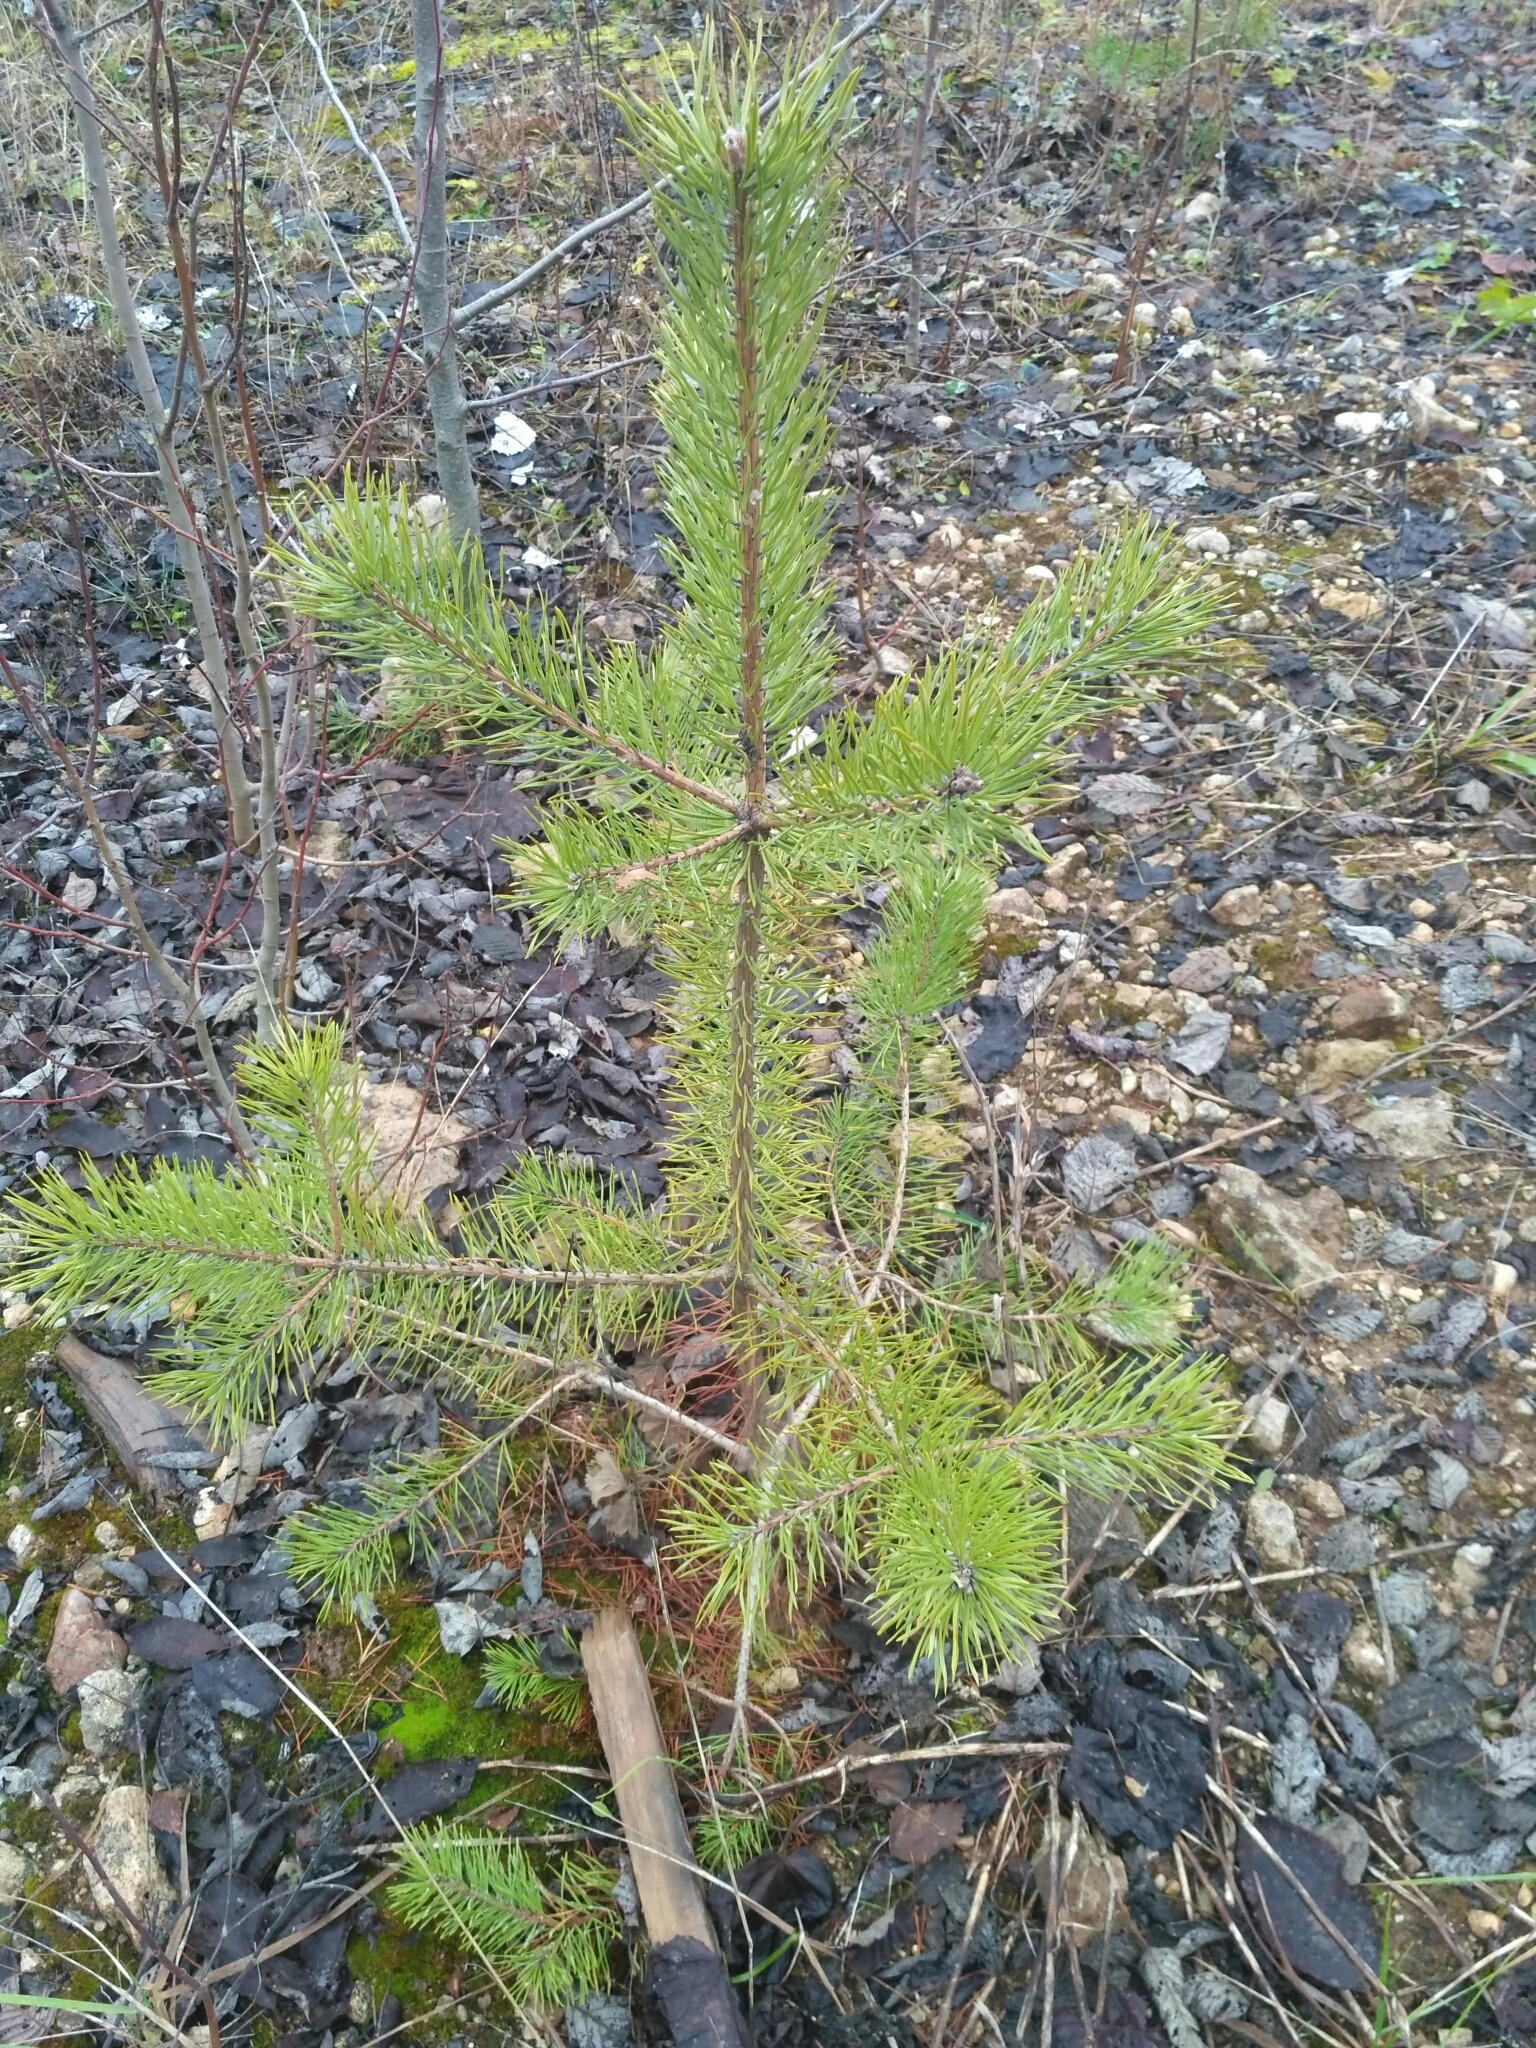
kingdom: Plantae
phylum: Tracheophyta
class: Pinopsida
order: Pinales
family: Pinaceae
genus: Pinus
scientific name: Pinus sylvestris
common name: Scots pine
